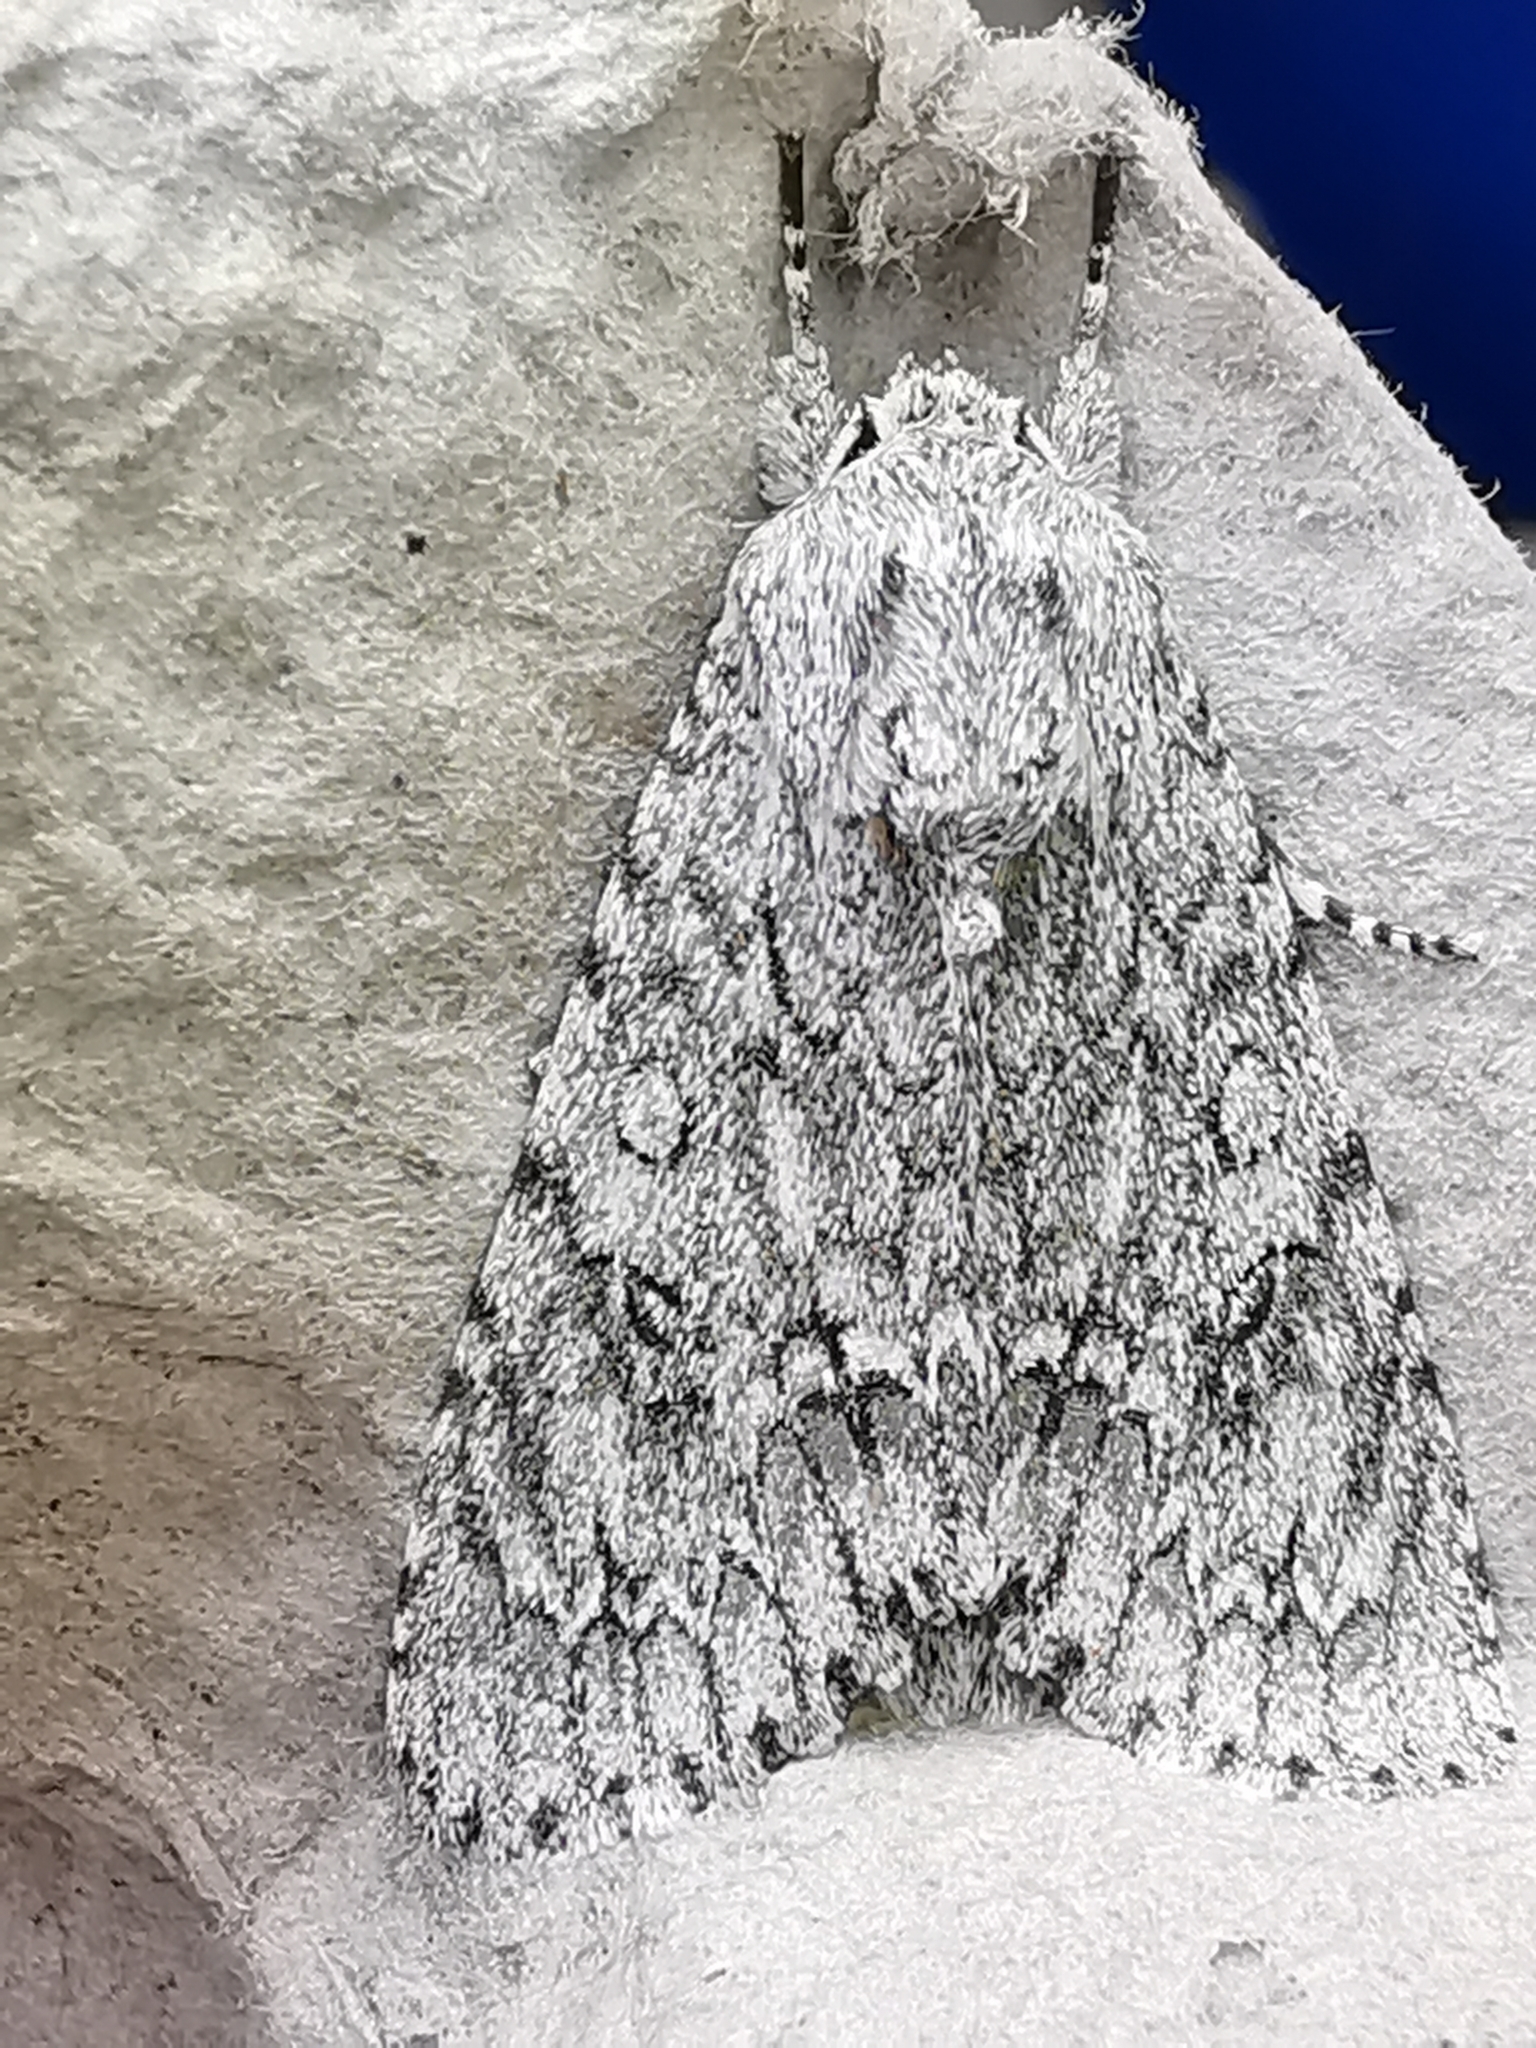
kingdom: Animalia
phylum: Arthropoda
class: Insecta
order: Lepidoptera
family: Noctuidae
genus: Acronicta
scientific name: Acronicta aceris
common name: Sycamore
